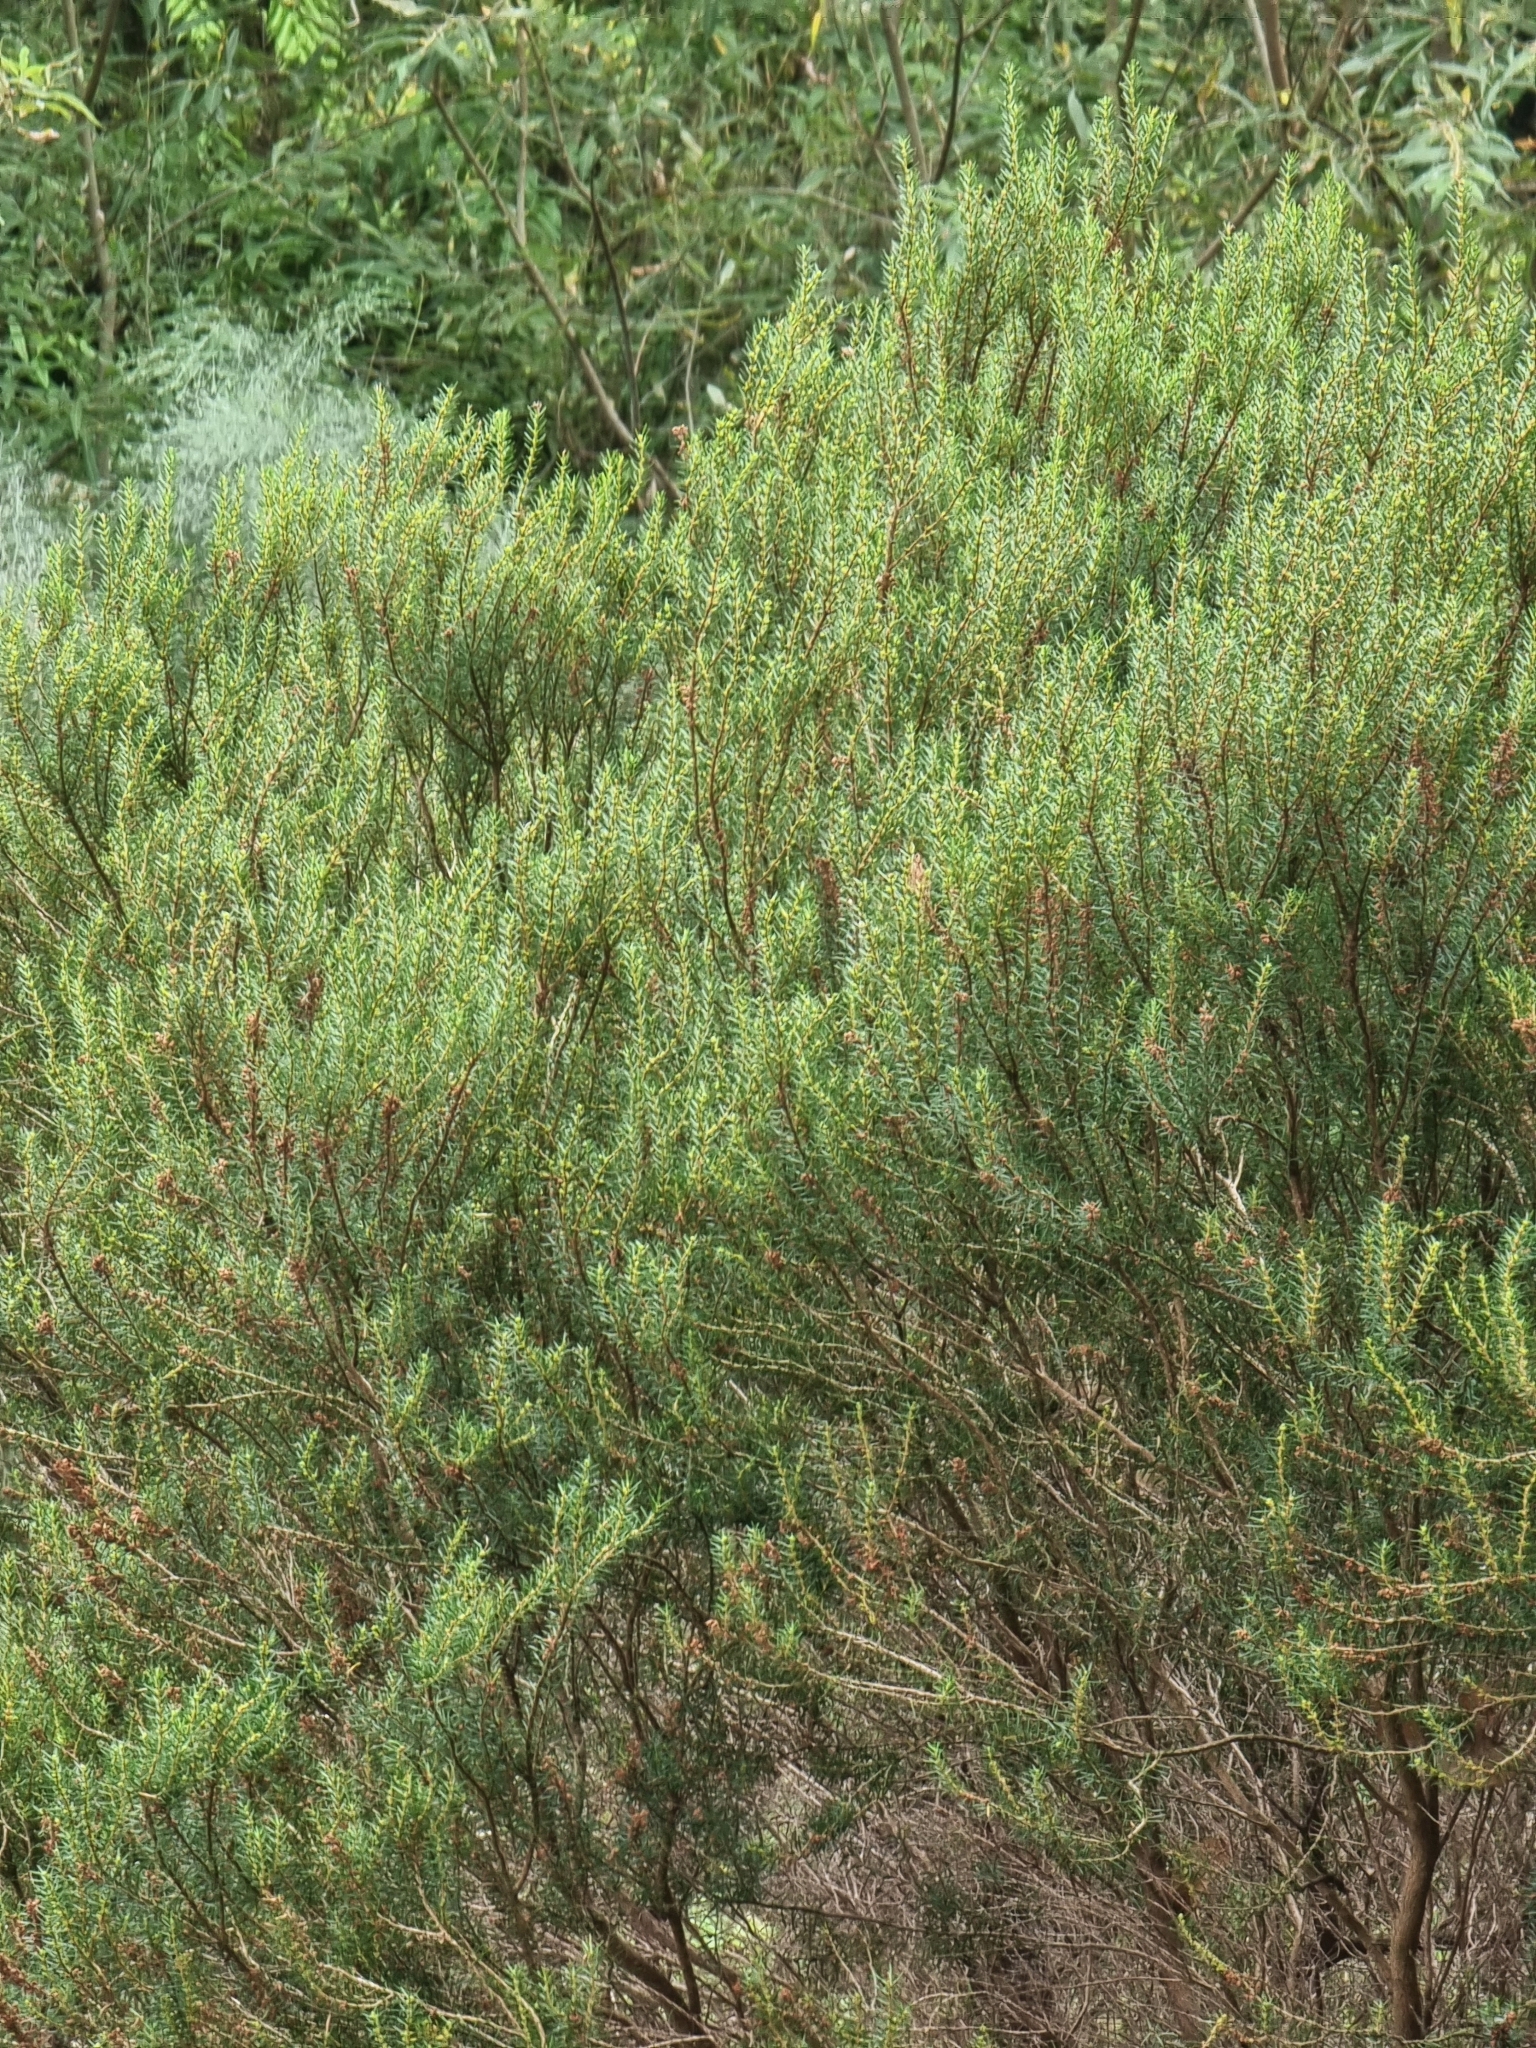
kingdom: Plantae
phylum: Tracheophyta
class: Magnoliopsida
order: Ericales
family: Ericaceae
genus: Erica
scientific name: Erica platycodon
